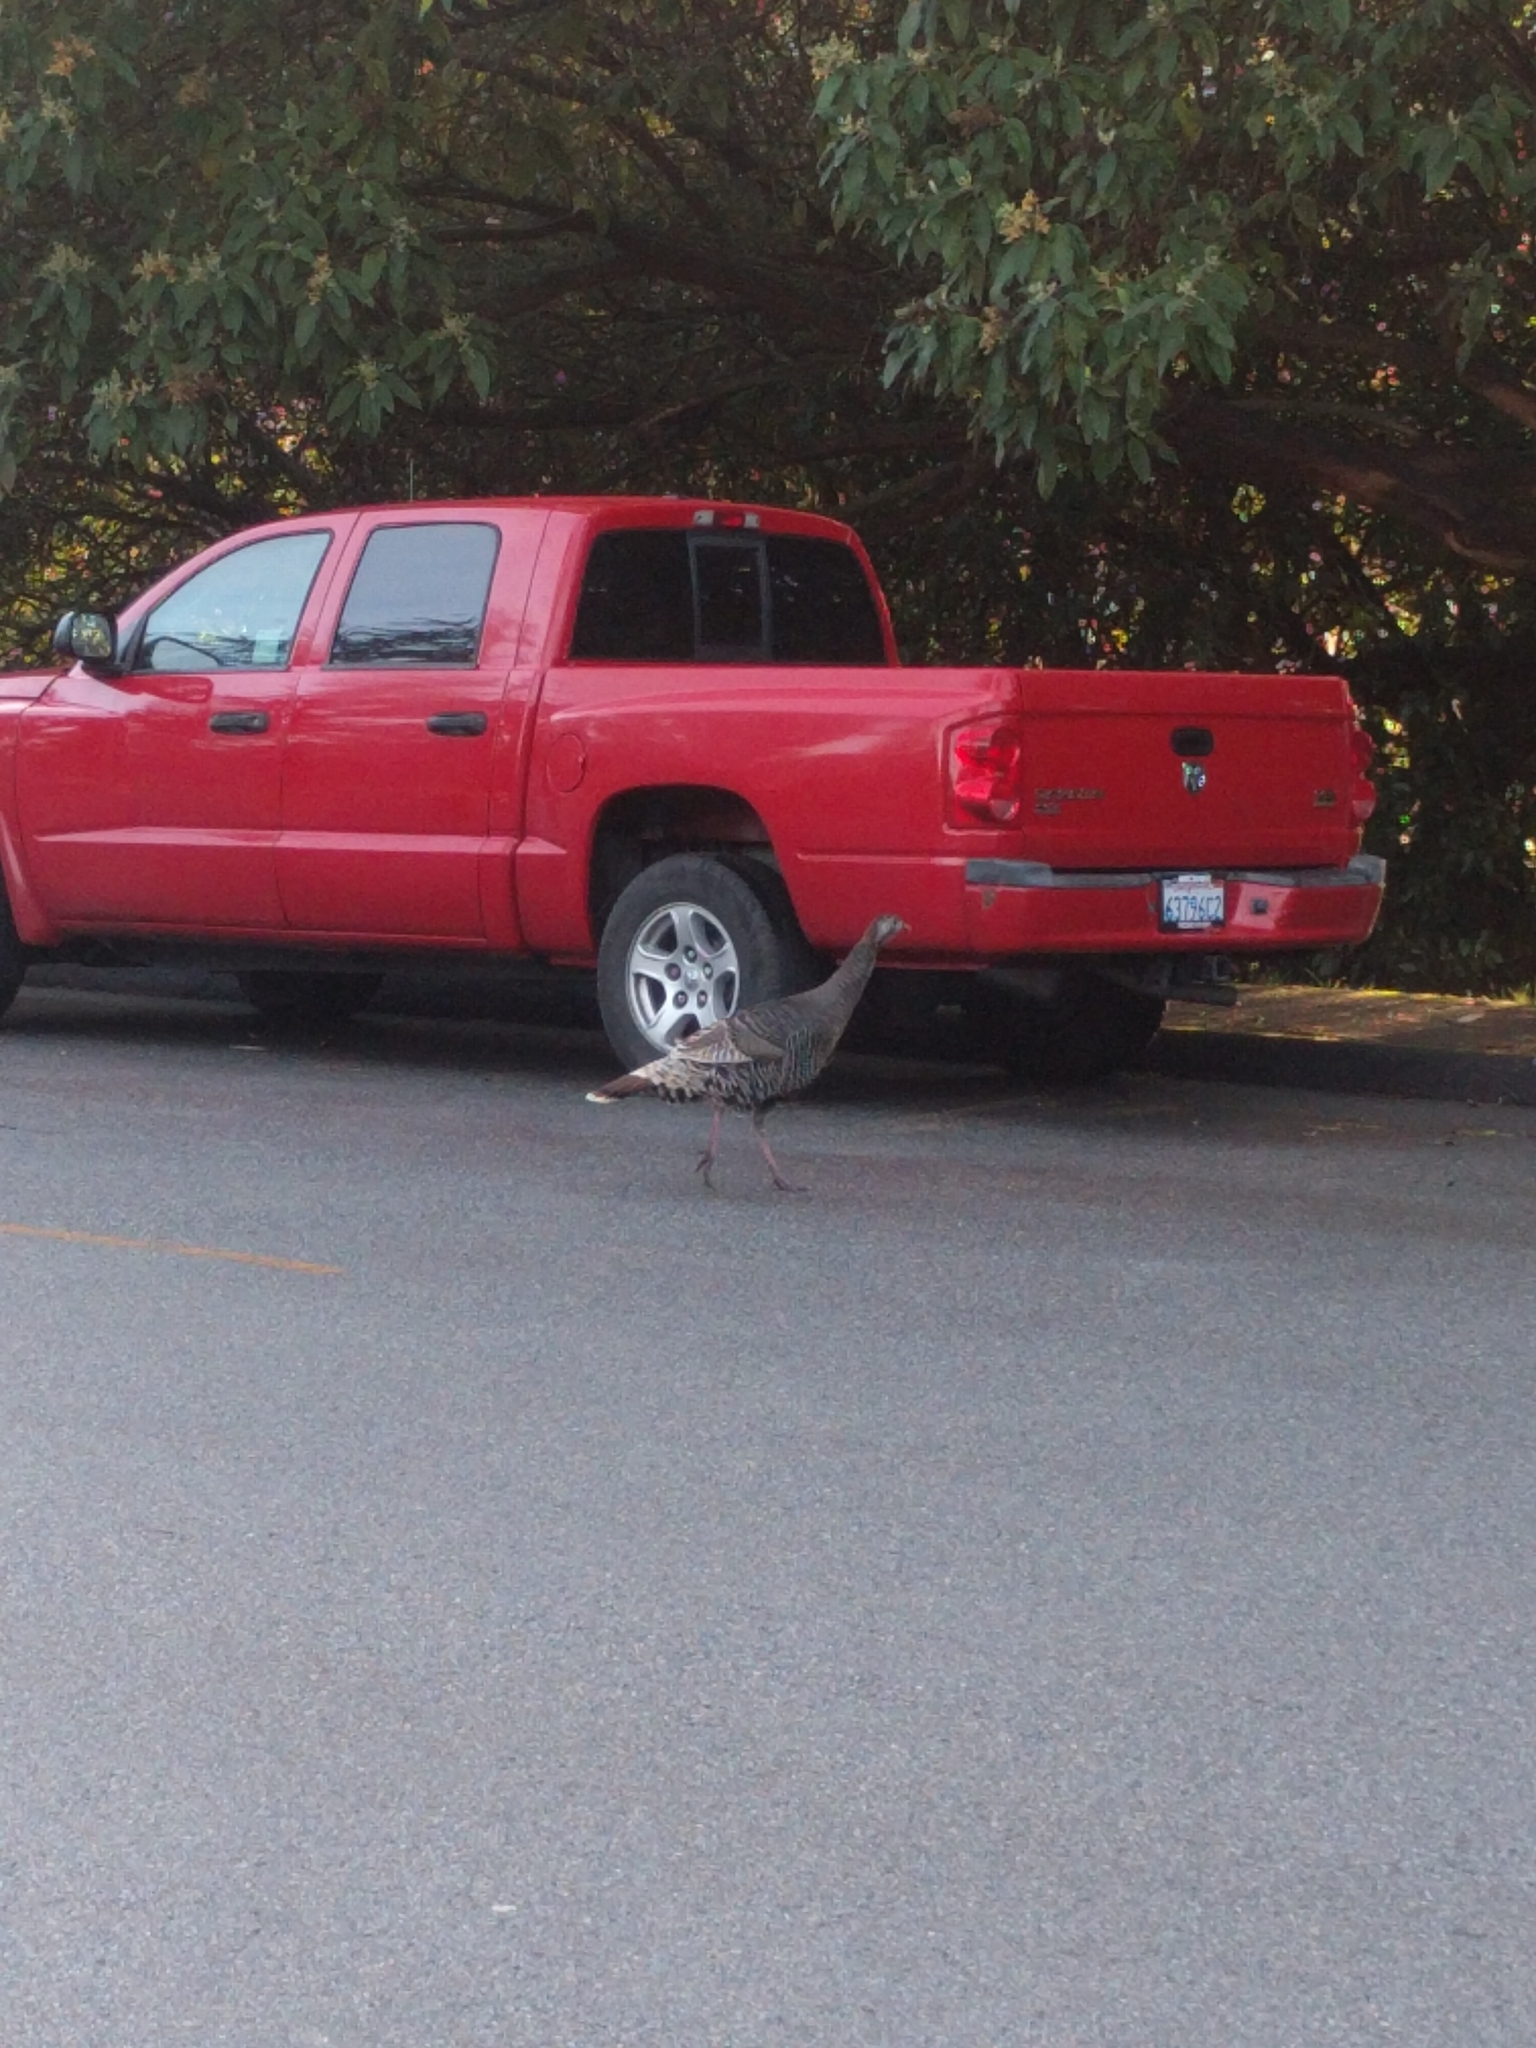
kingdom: Animalia
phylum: Chordata
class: Aves
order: Galliformes
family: Phasianidae
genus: Meleagris
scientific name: Meleagris gallopavo
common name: Wild turkey
